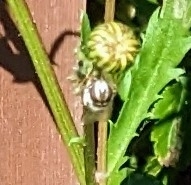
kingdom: Animalia
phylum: Arthropoda
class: Insecta
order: Diptera
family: Syrphidae
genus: Scaeva
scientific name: Scaeva pyrastri
